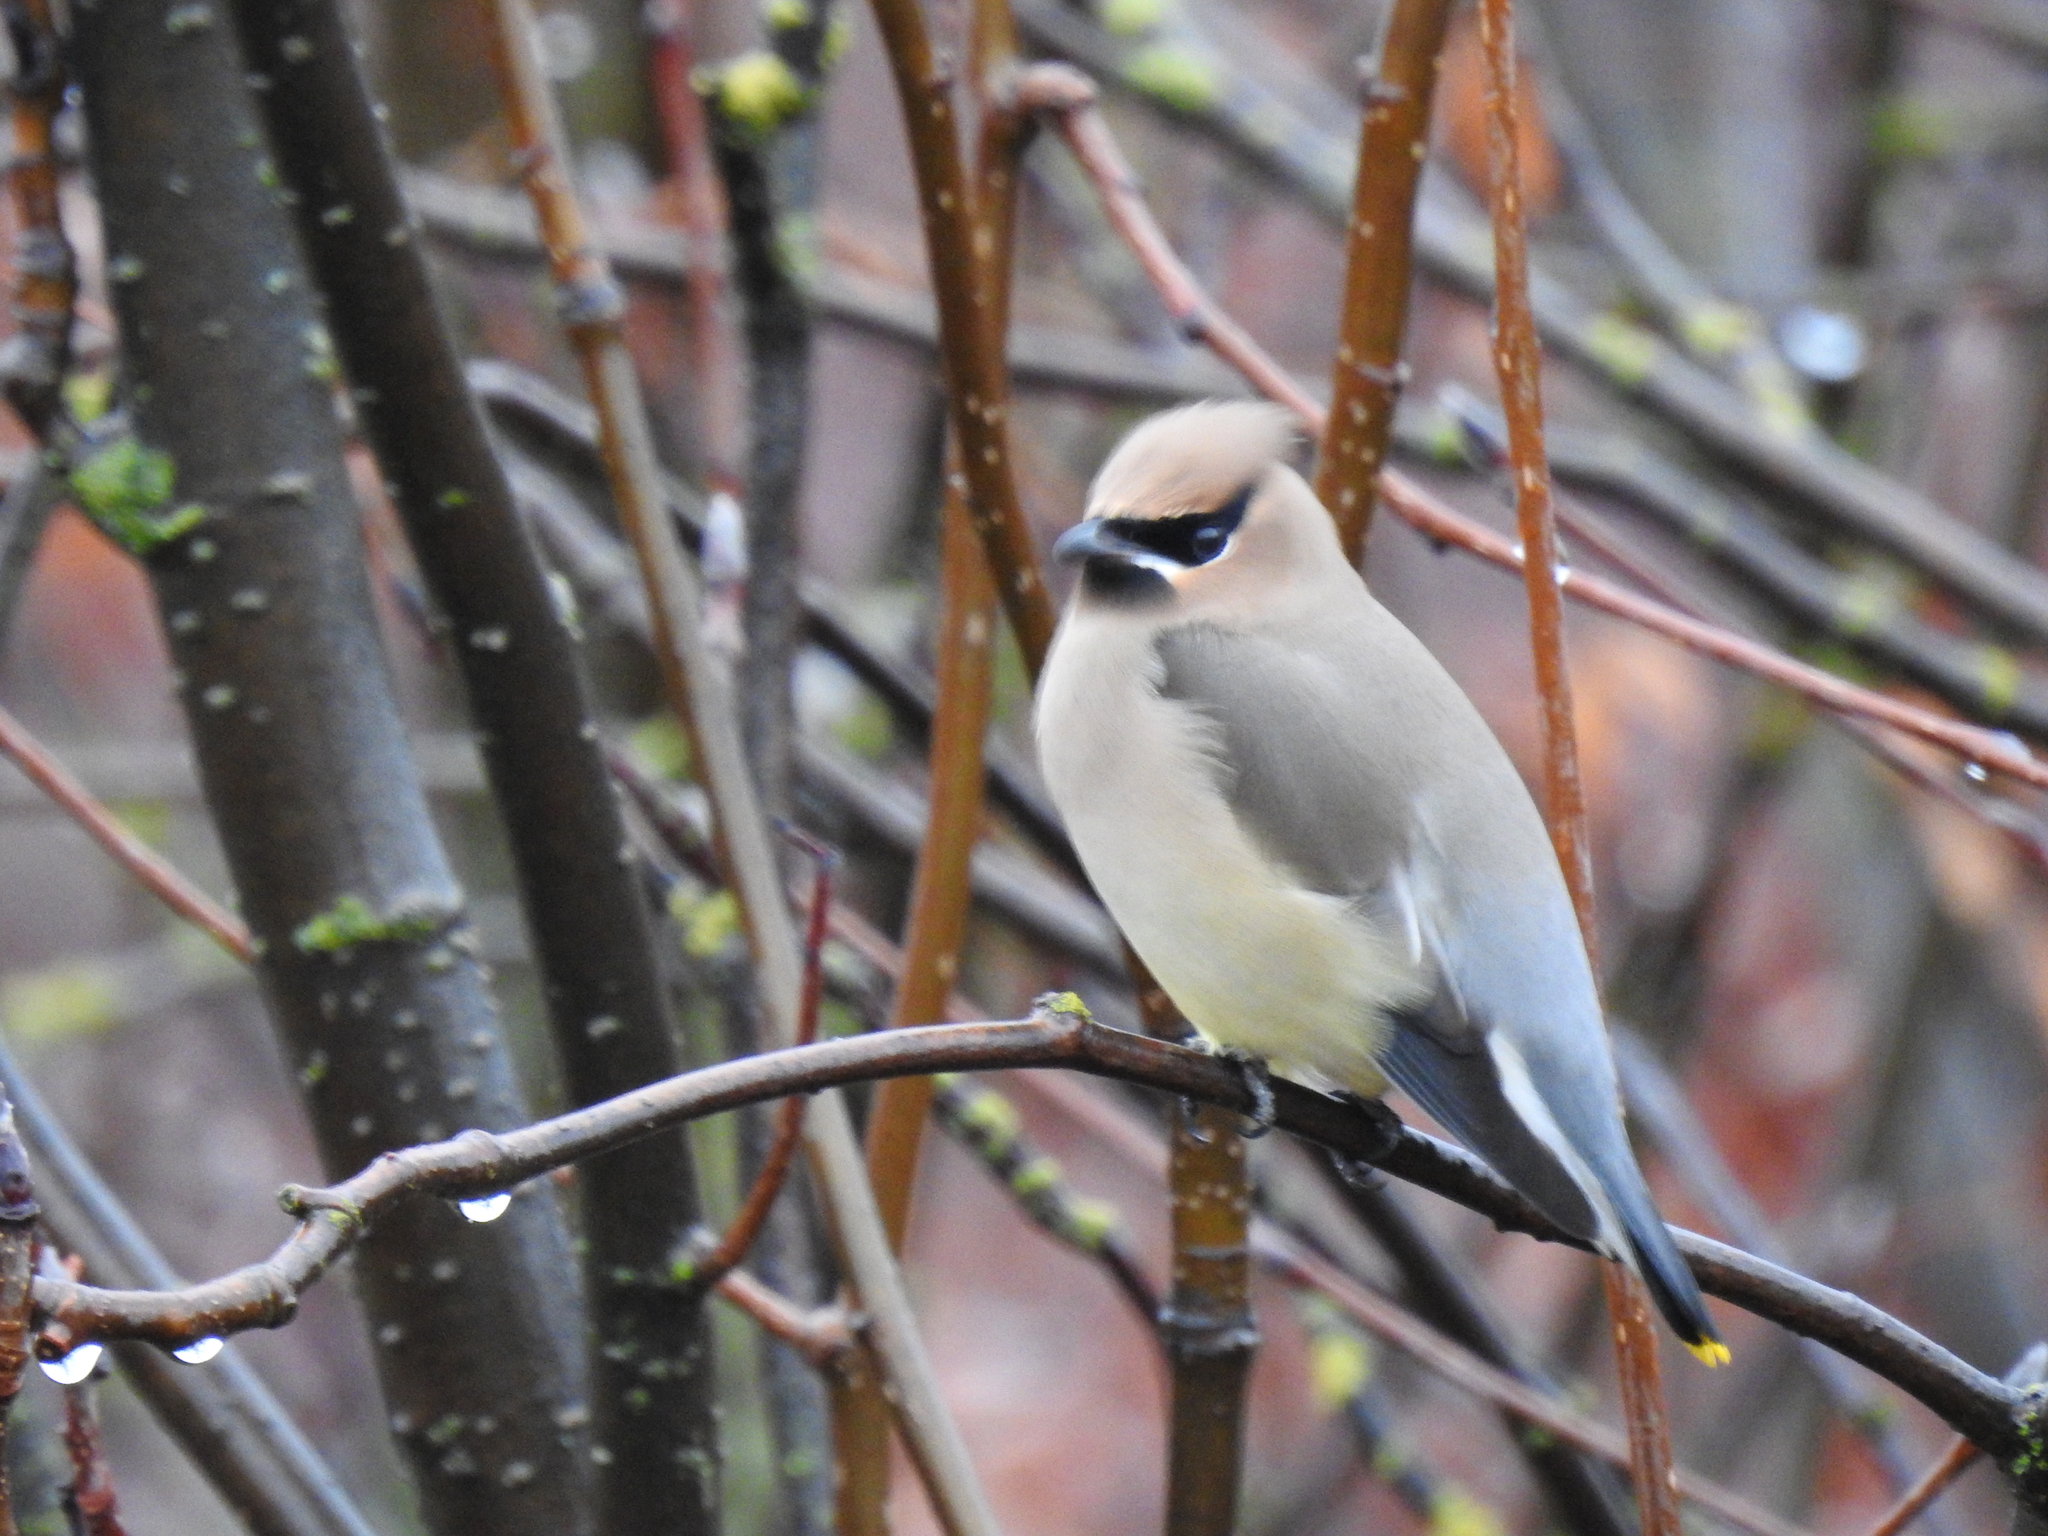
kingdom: Animalia
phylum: Chordata
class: Aves
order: Passeriformes
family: Bombycillidae
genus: Bombycilla
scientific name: Bombycilla cedrorum
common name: Cedar waxwing
